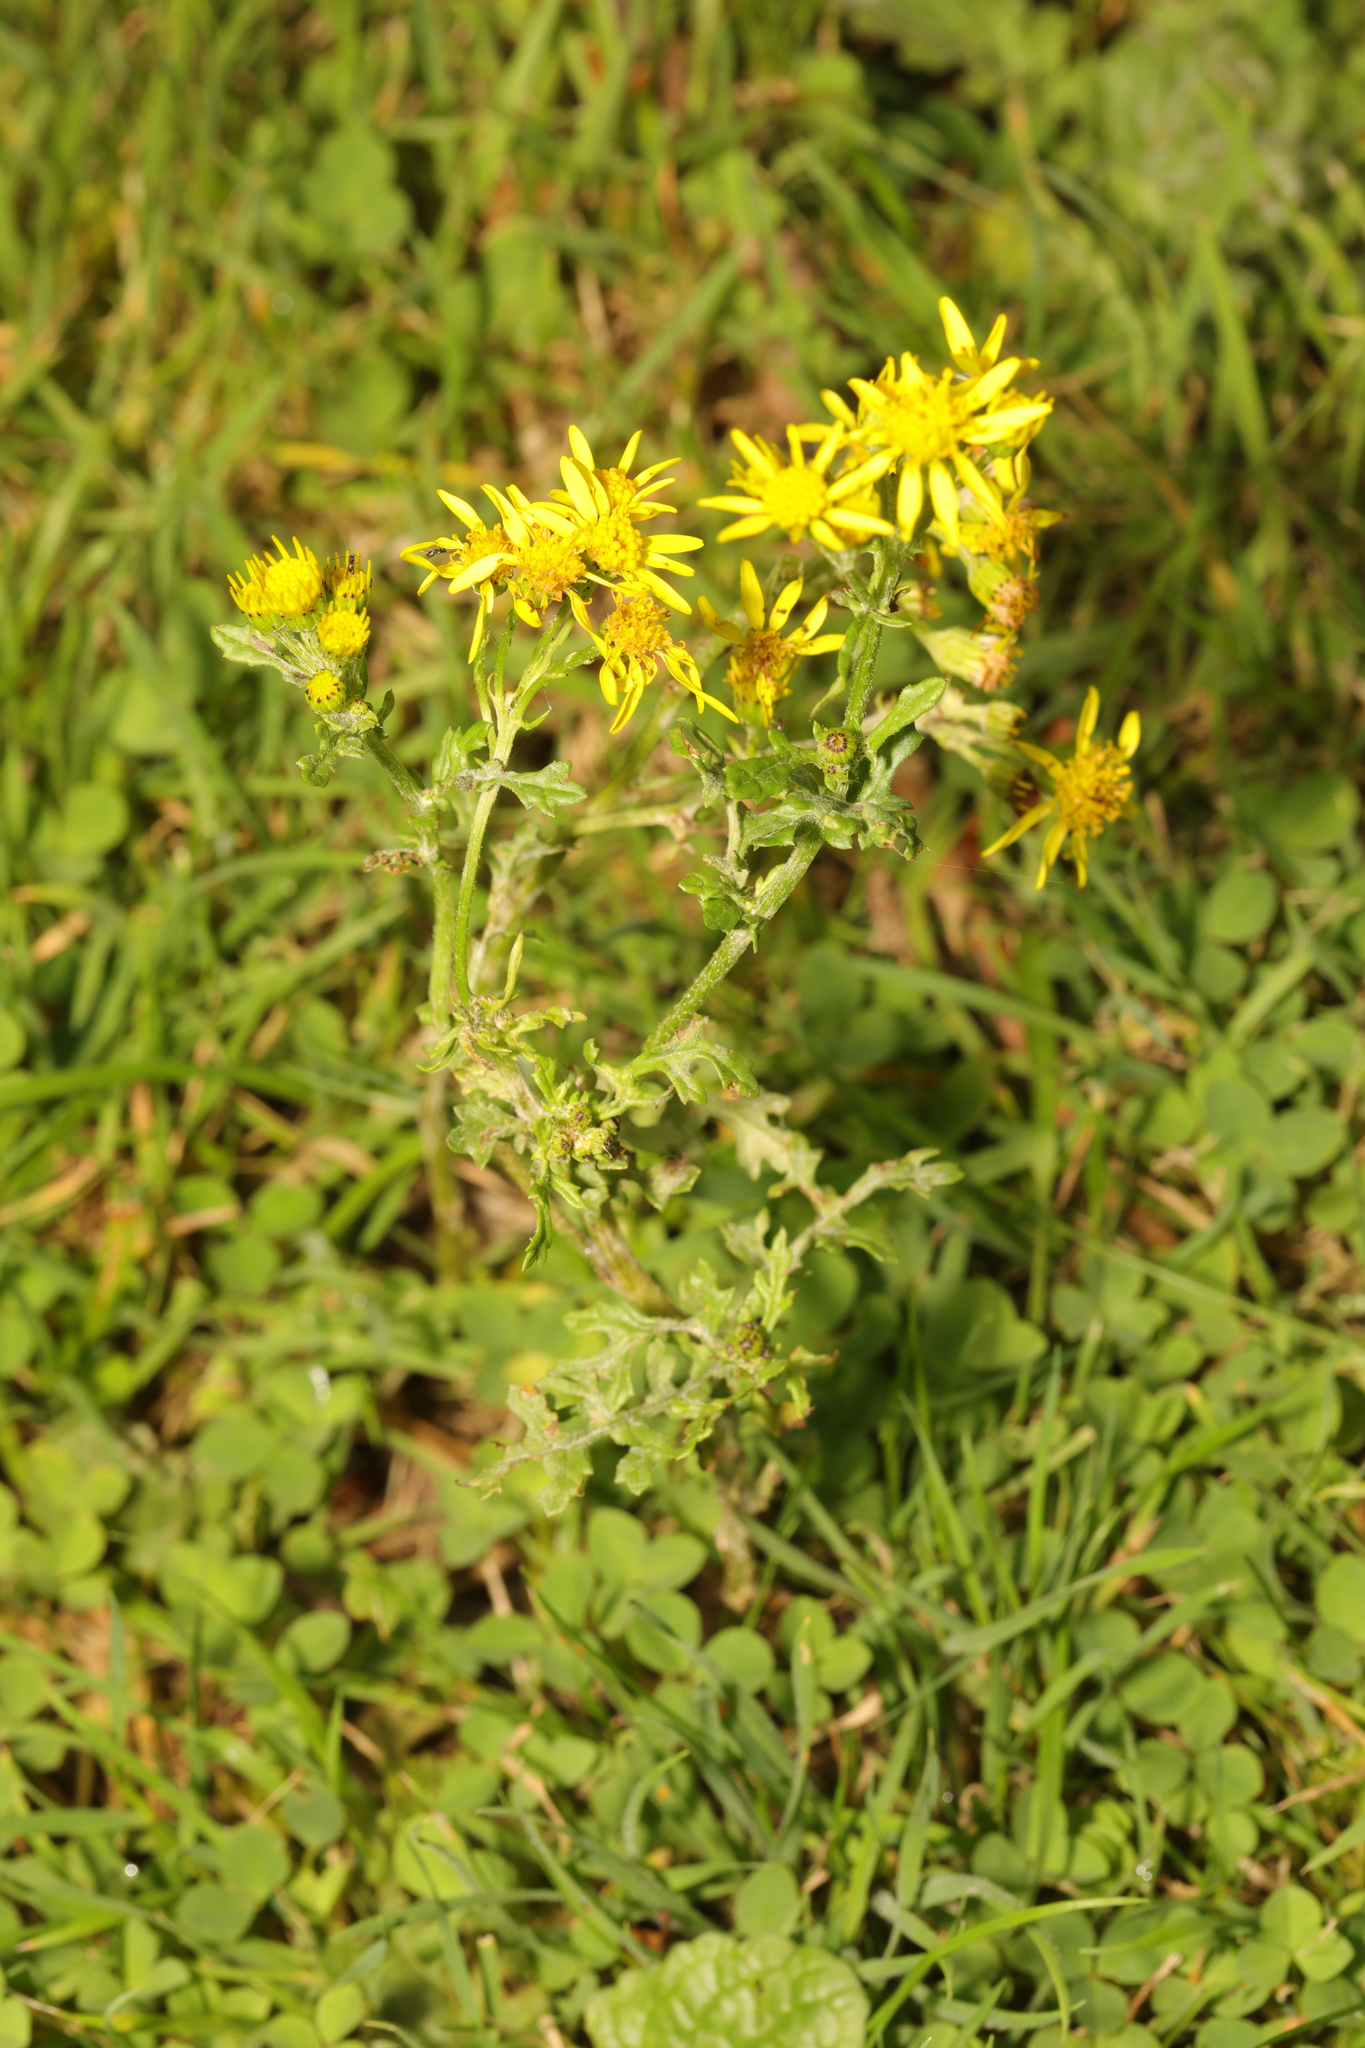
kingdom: Plantae
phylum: Tracheophyta
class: Magnoliopsida
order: Asterales
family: Asteraceae
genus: Jacobaea
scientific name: Jacobaea vulgaris
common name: Stinking willie
